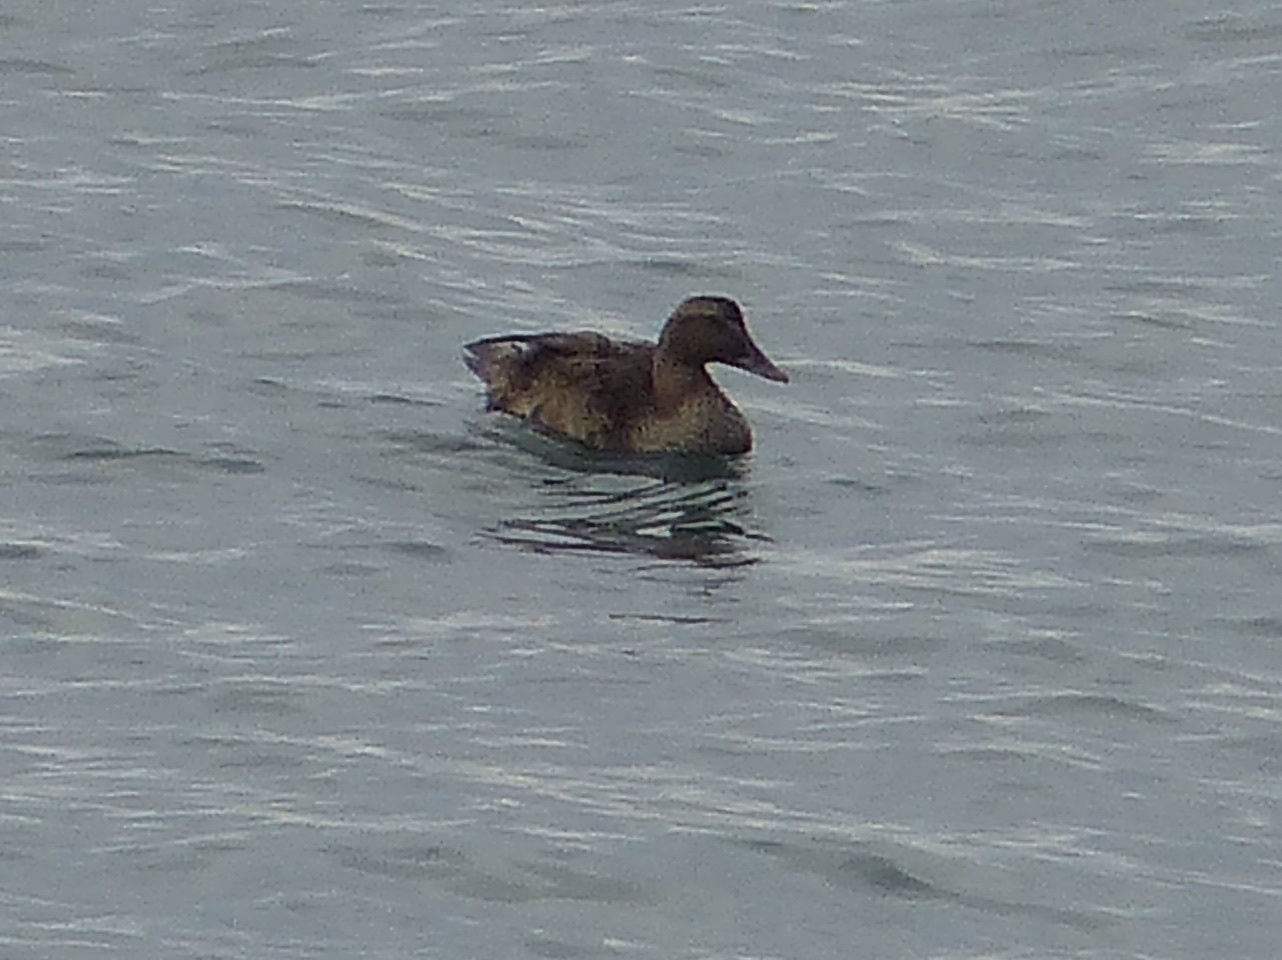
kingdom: Animalia
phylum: Chordata
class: Aves
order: Anseriformes
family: Anatidae
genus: Somateria
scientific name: Somateria mollissima
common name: Common eider
